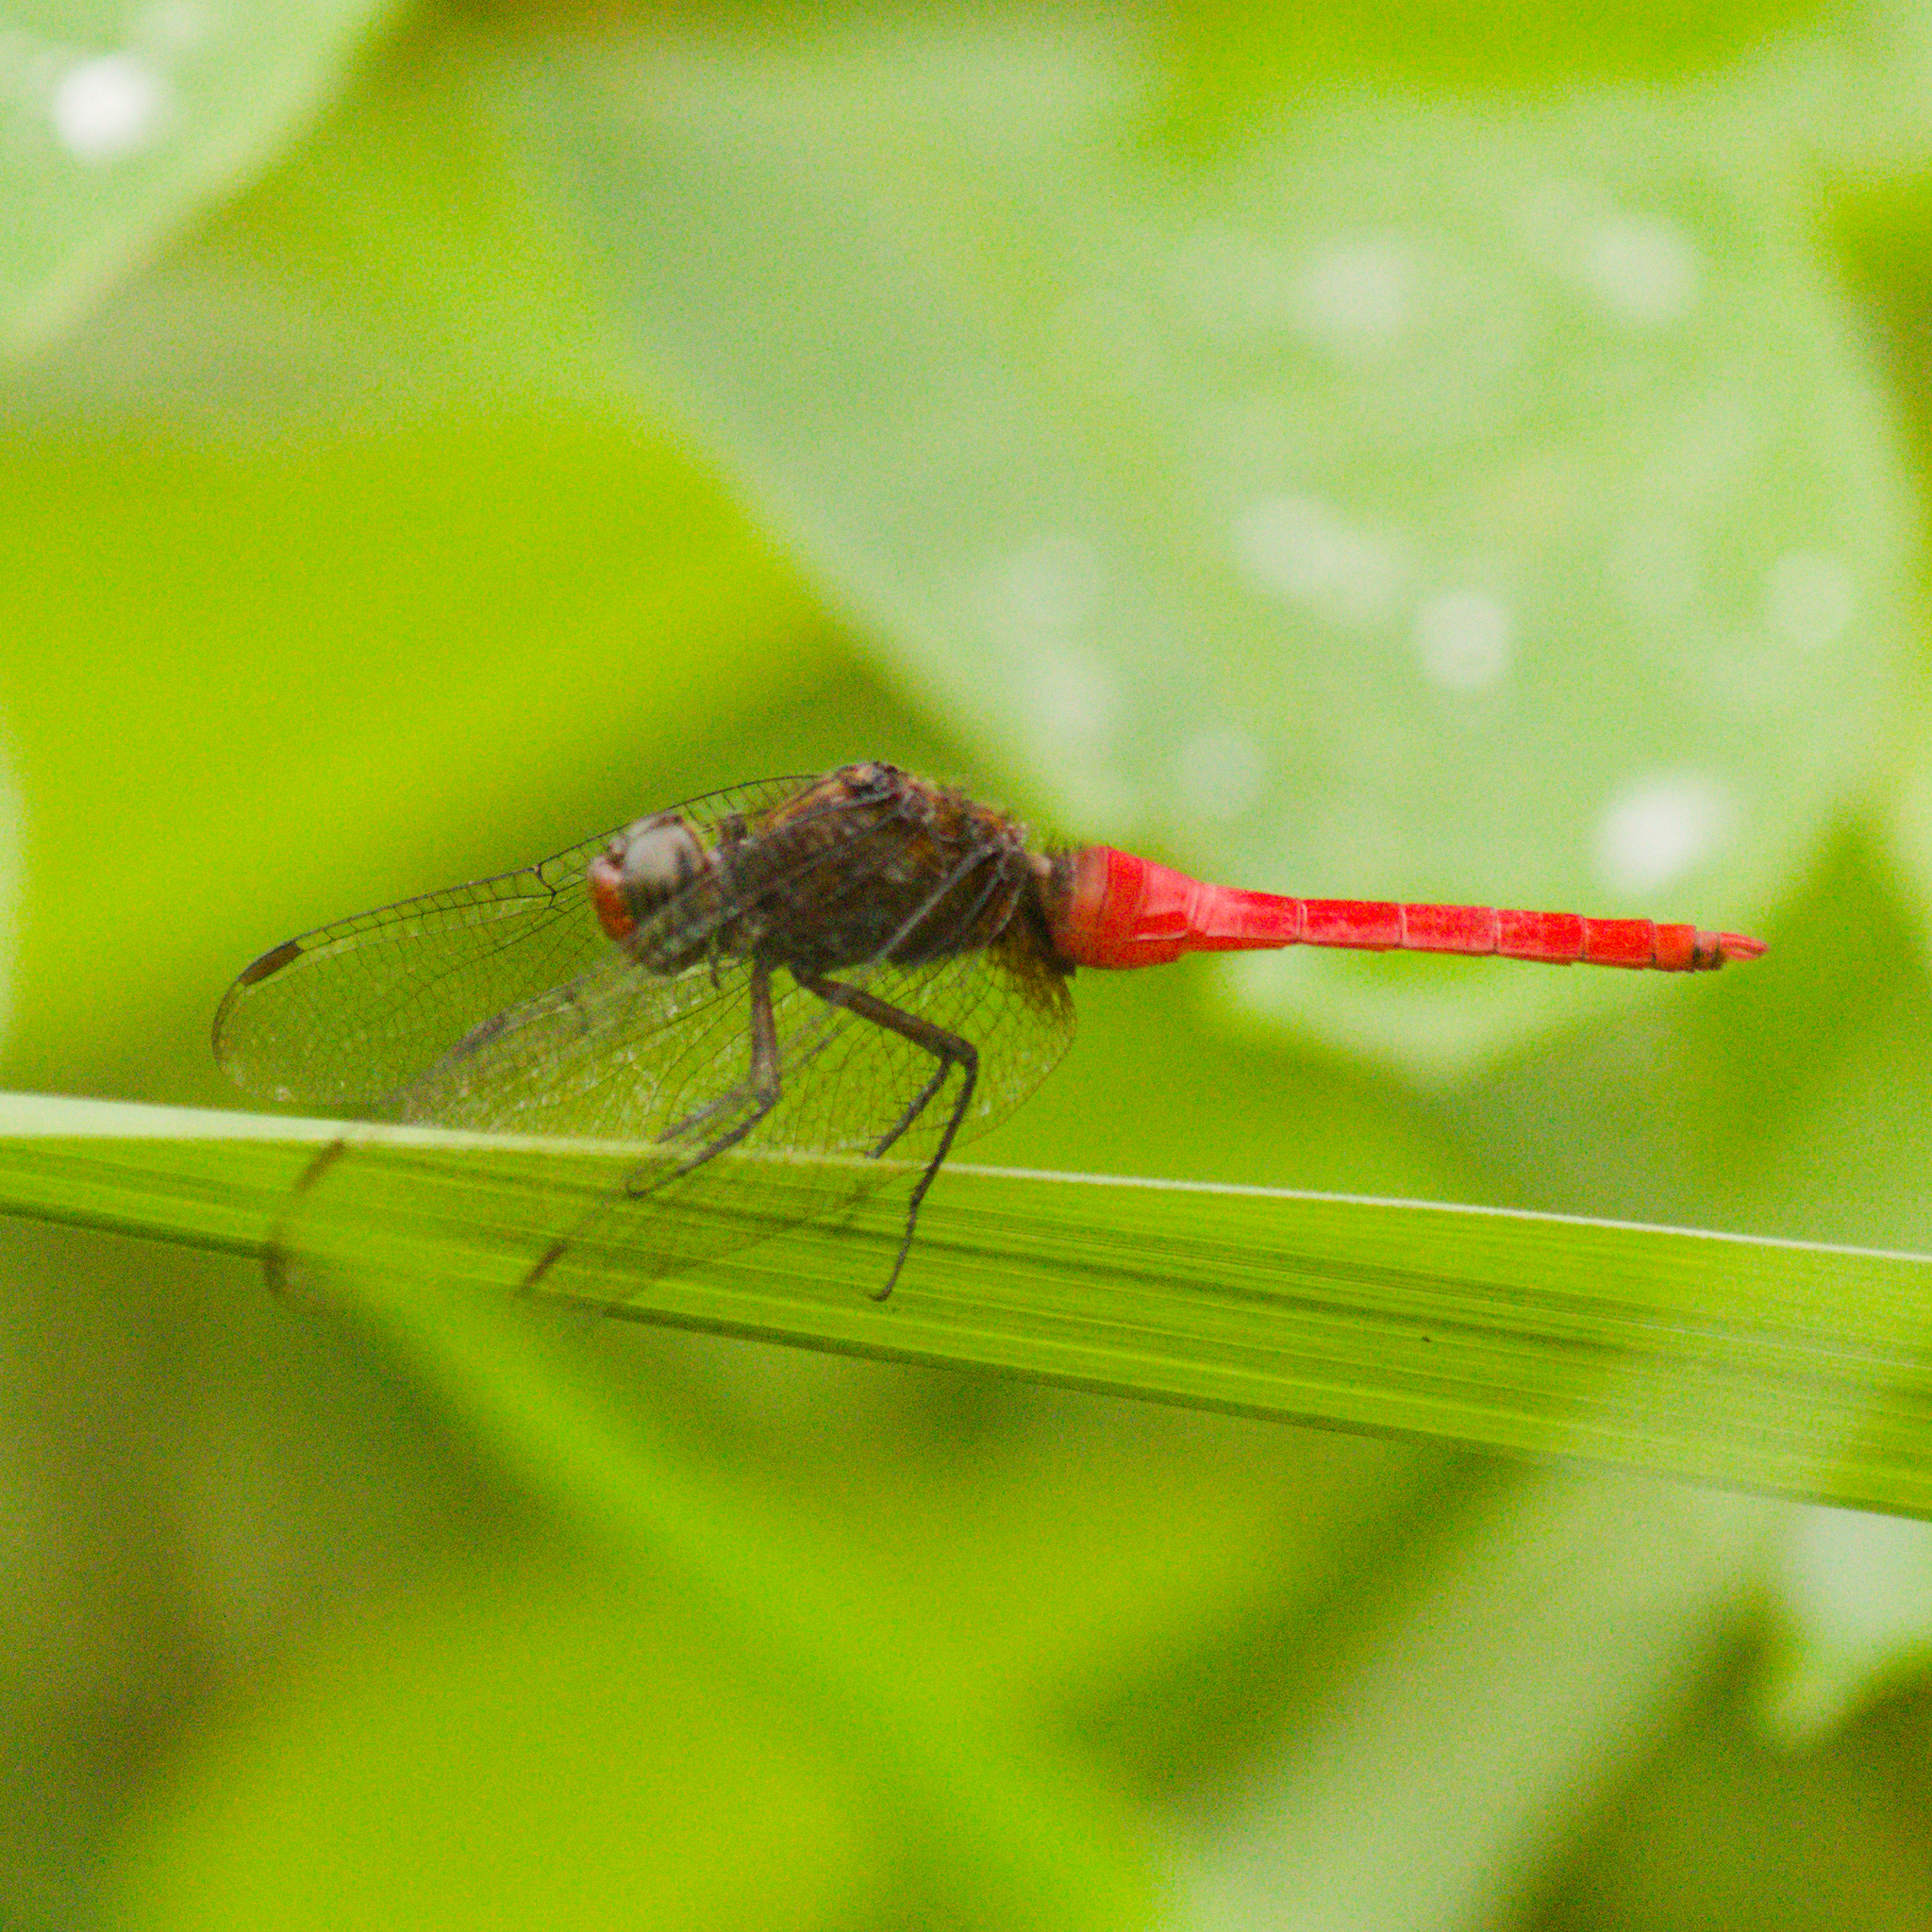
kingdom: Animalia
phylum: Arthropoda
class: Insecta
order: Odonata
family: Libellulidae
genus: Orthetrum
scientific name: Orthetrum chrysis
